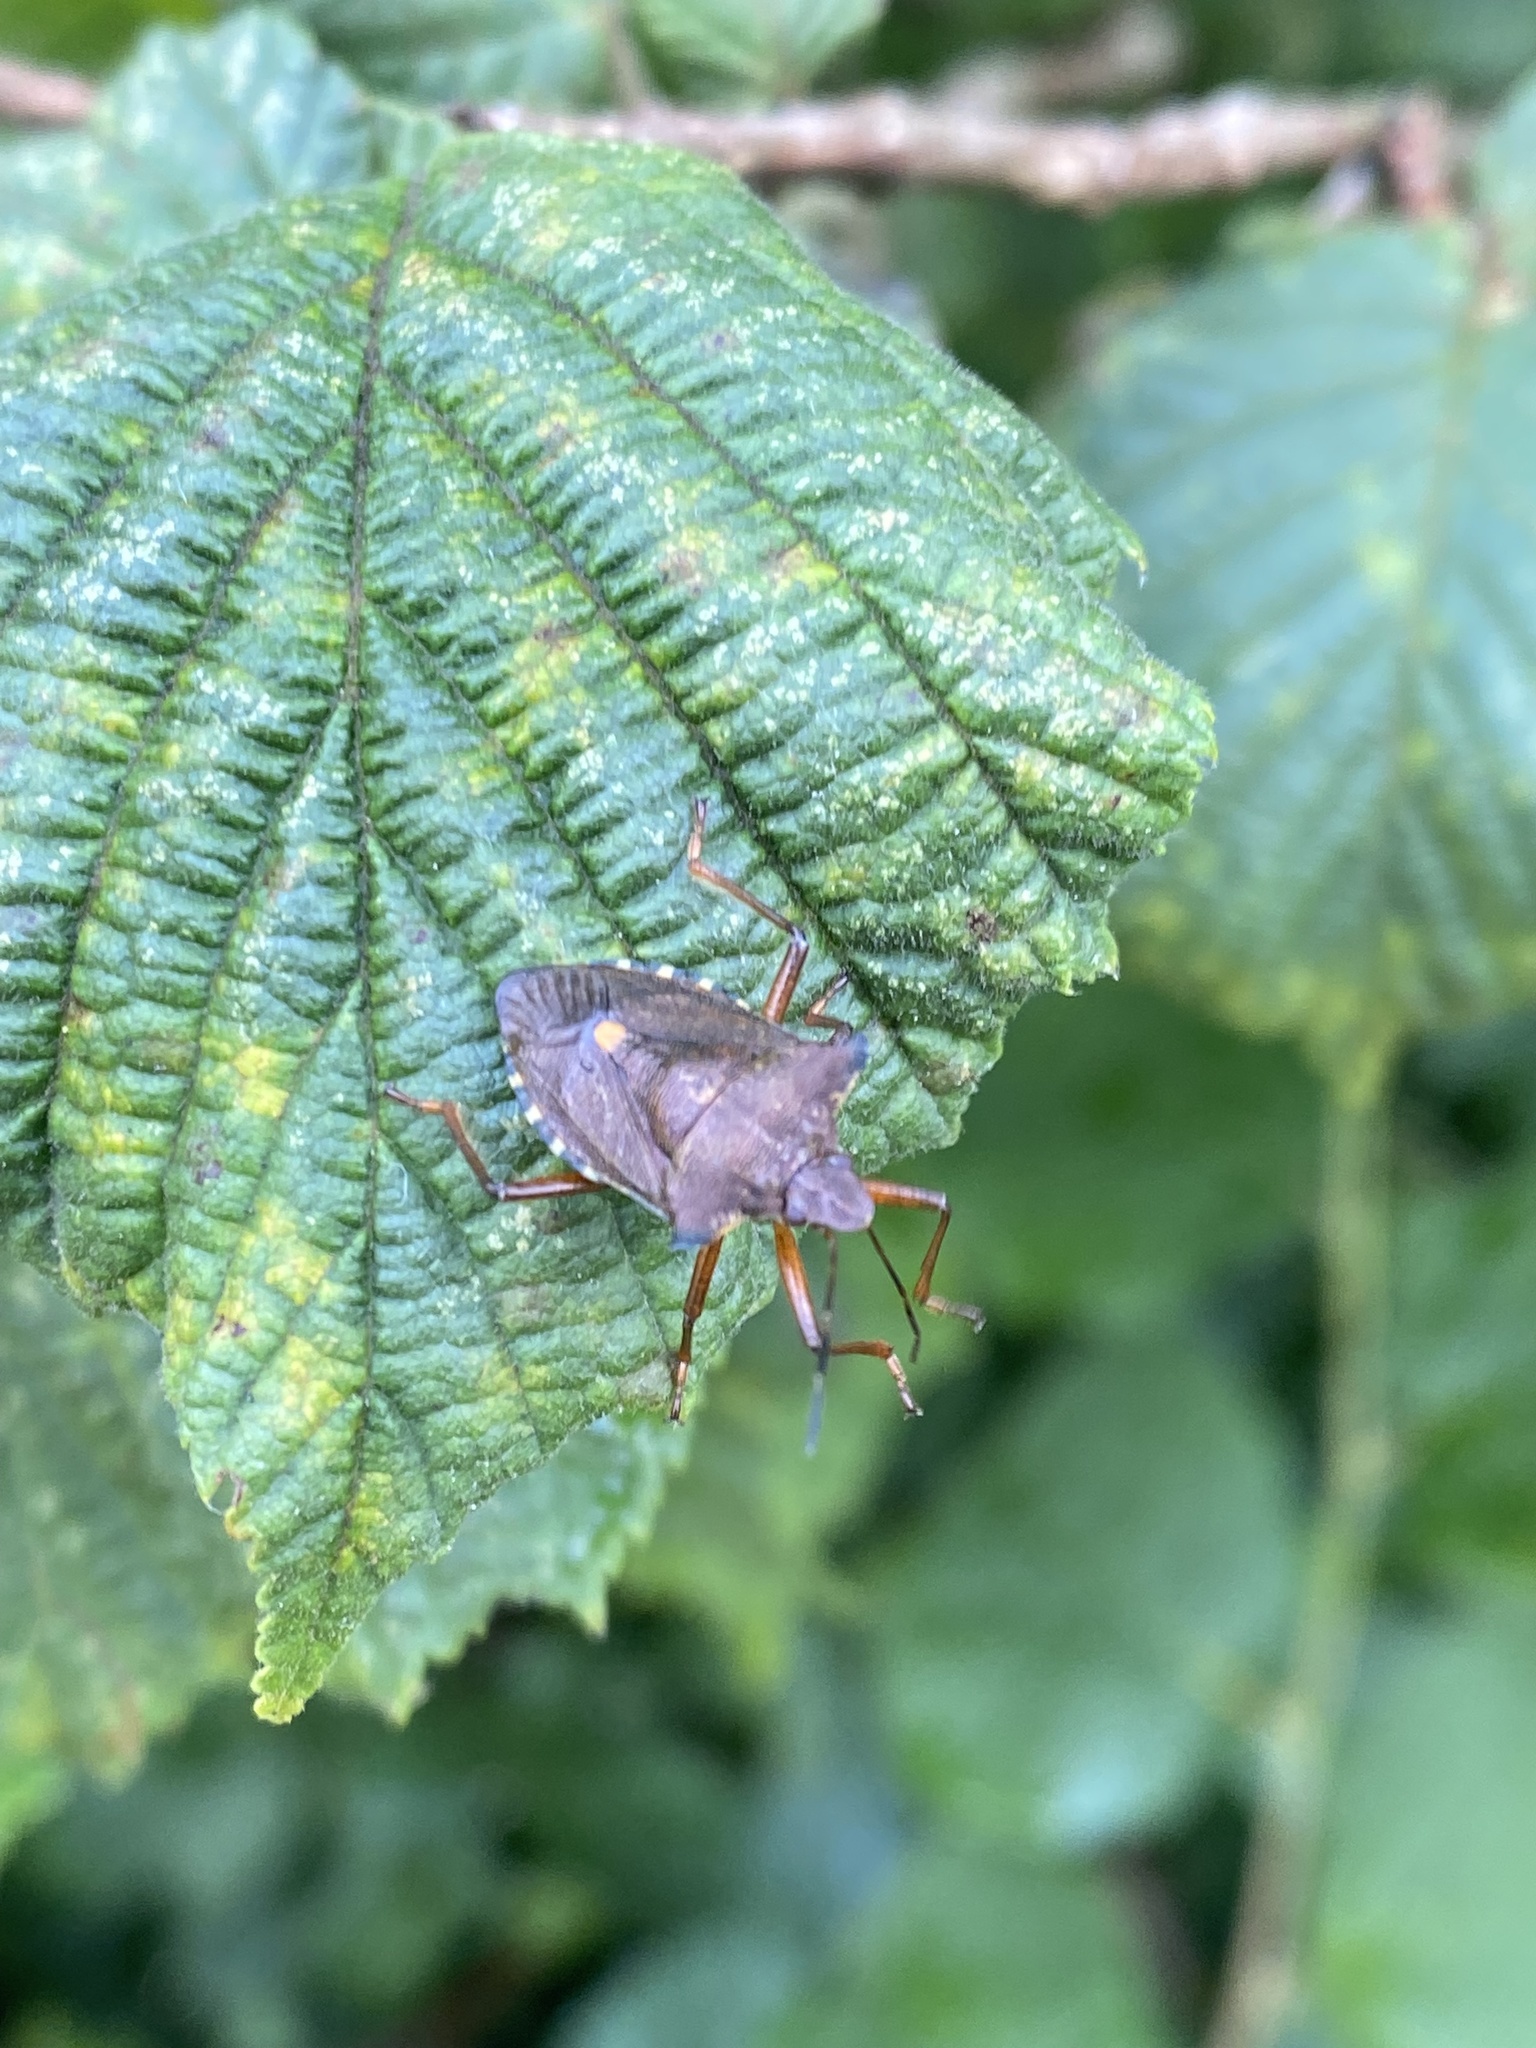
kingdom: Animalia
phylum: Arthropoda
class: Insecta
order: Hemiptera
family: Pentatomidae
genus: Pentatoma
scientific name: Pentatoma rufipes
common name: Forest bug
